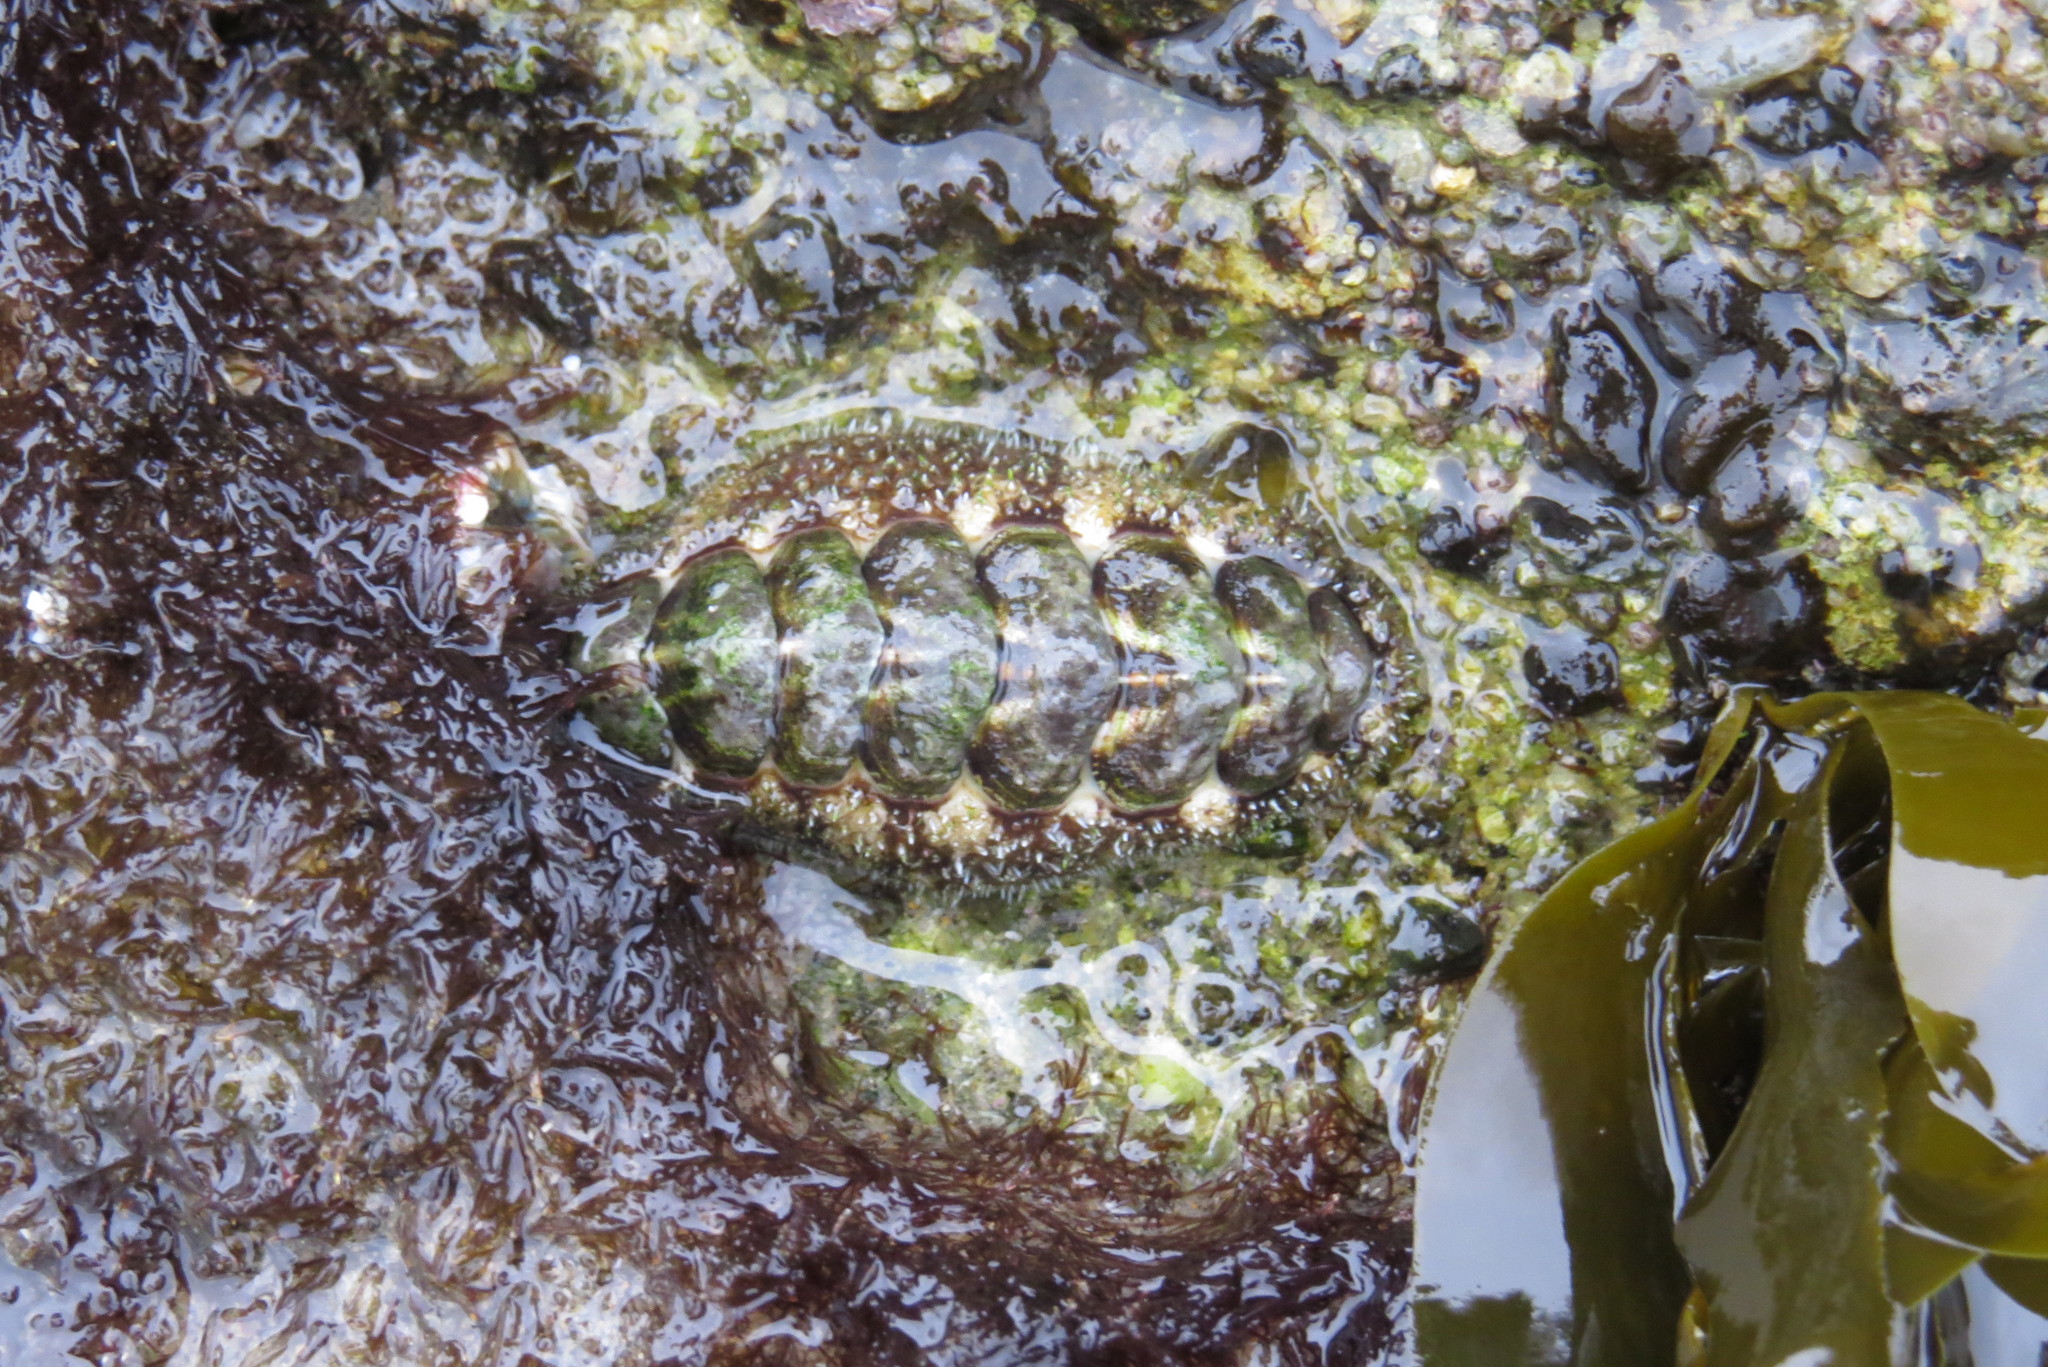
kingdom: Animalia
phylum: Mollusca
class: Polyplacophora
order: Chitonida
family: Tonicellidae
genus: Nuttallina
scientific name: Nuttallina californica
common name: California nuttall chiton
